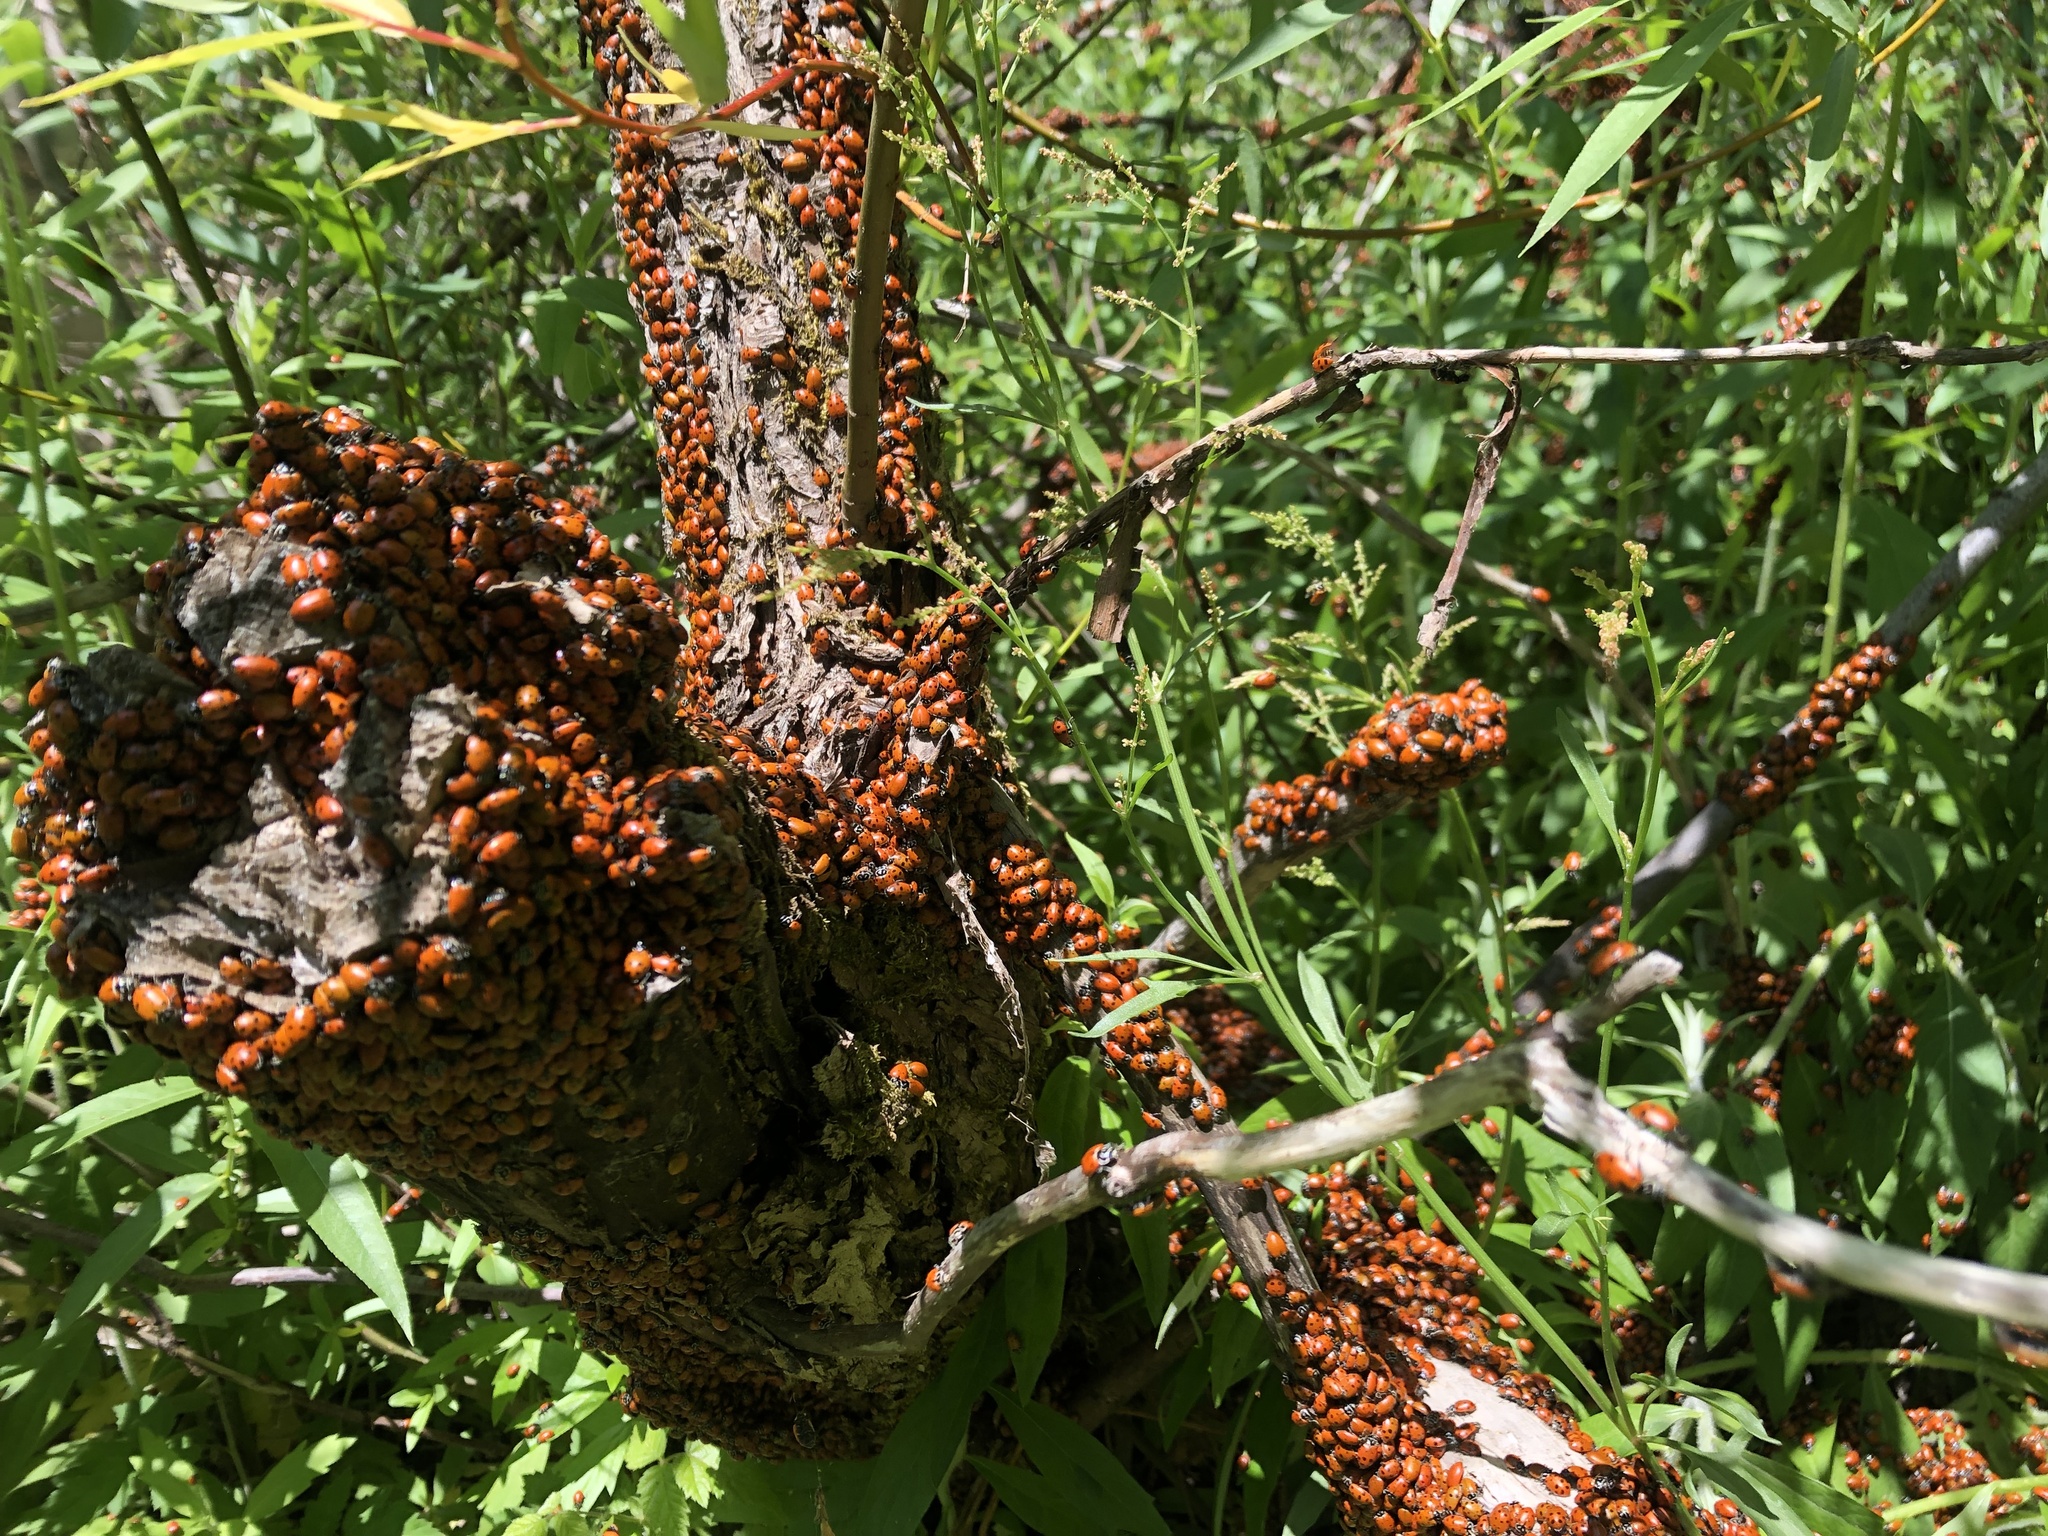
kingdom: Animalia
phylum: Arthropoda
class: Insecta
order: Coleoptera
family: Coccinellidae
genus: Hippodamia
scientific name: Hippodamia convergens
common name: Convergent lady beetle
